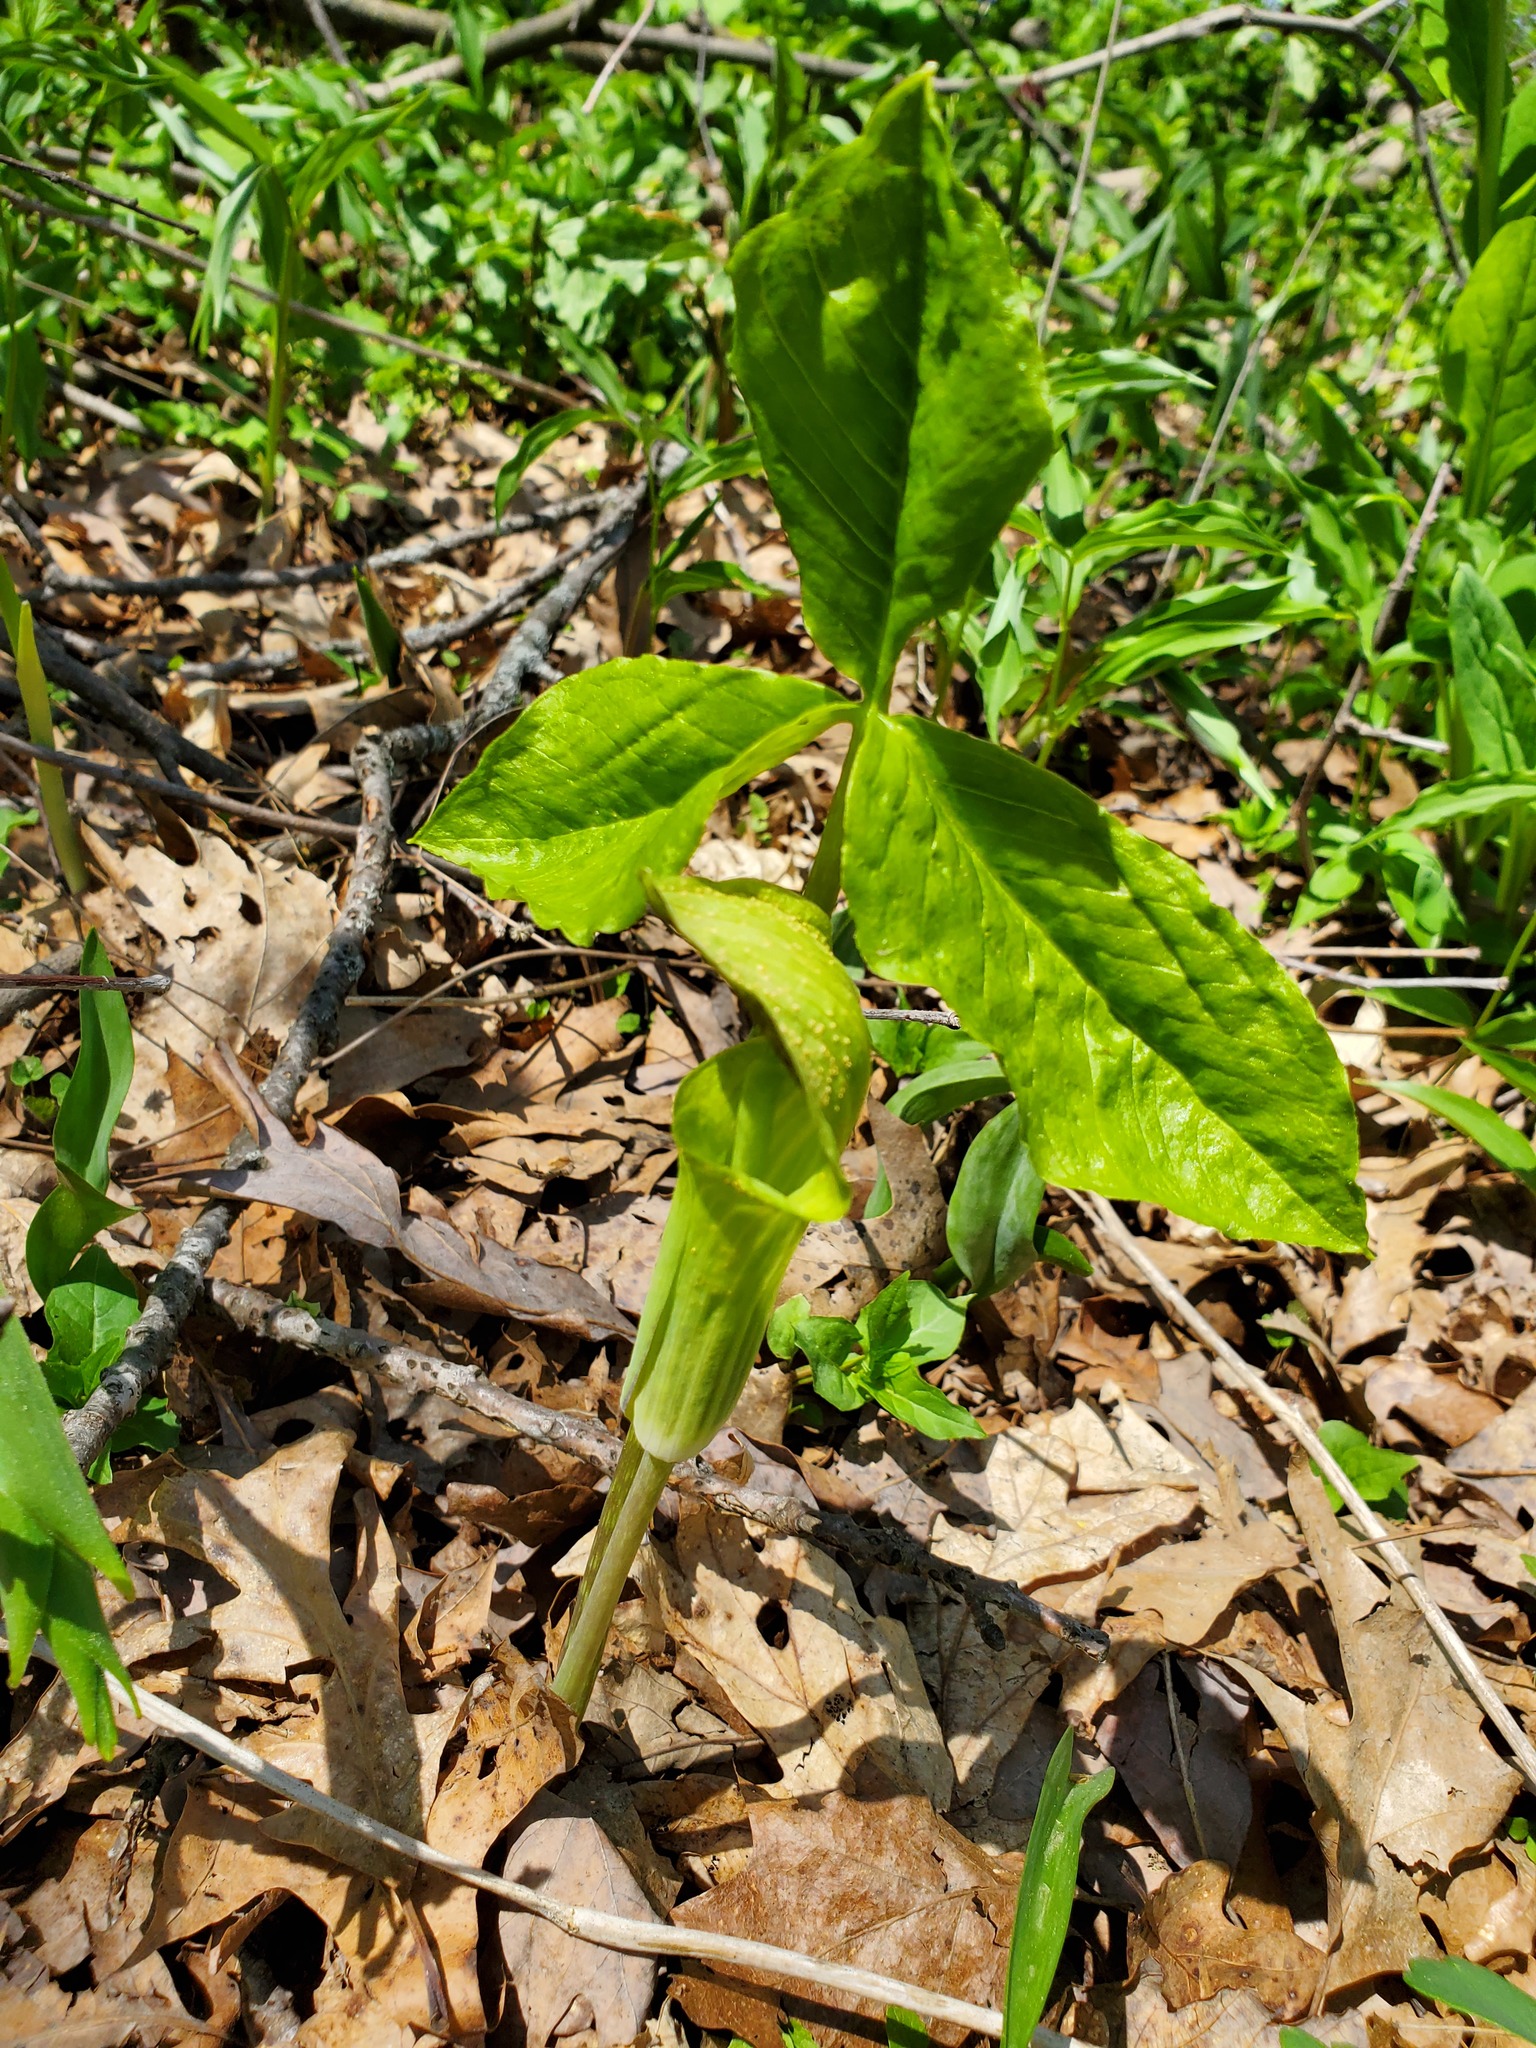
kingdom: Plantae
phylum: Tracheophyta
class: Liliopsida
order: Alismatales
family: Araceae
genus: Arisaema
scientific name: Arisaema triphyllum
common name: Jack-in-the-pulpit
